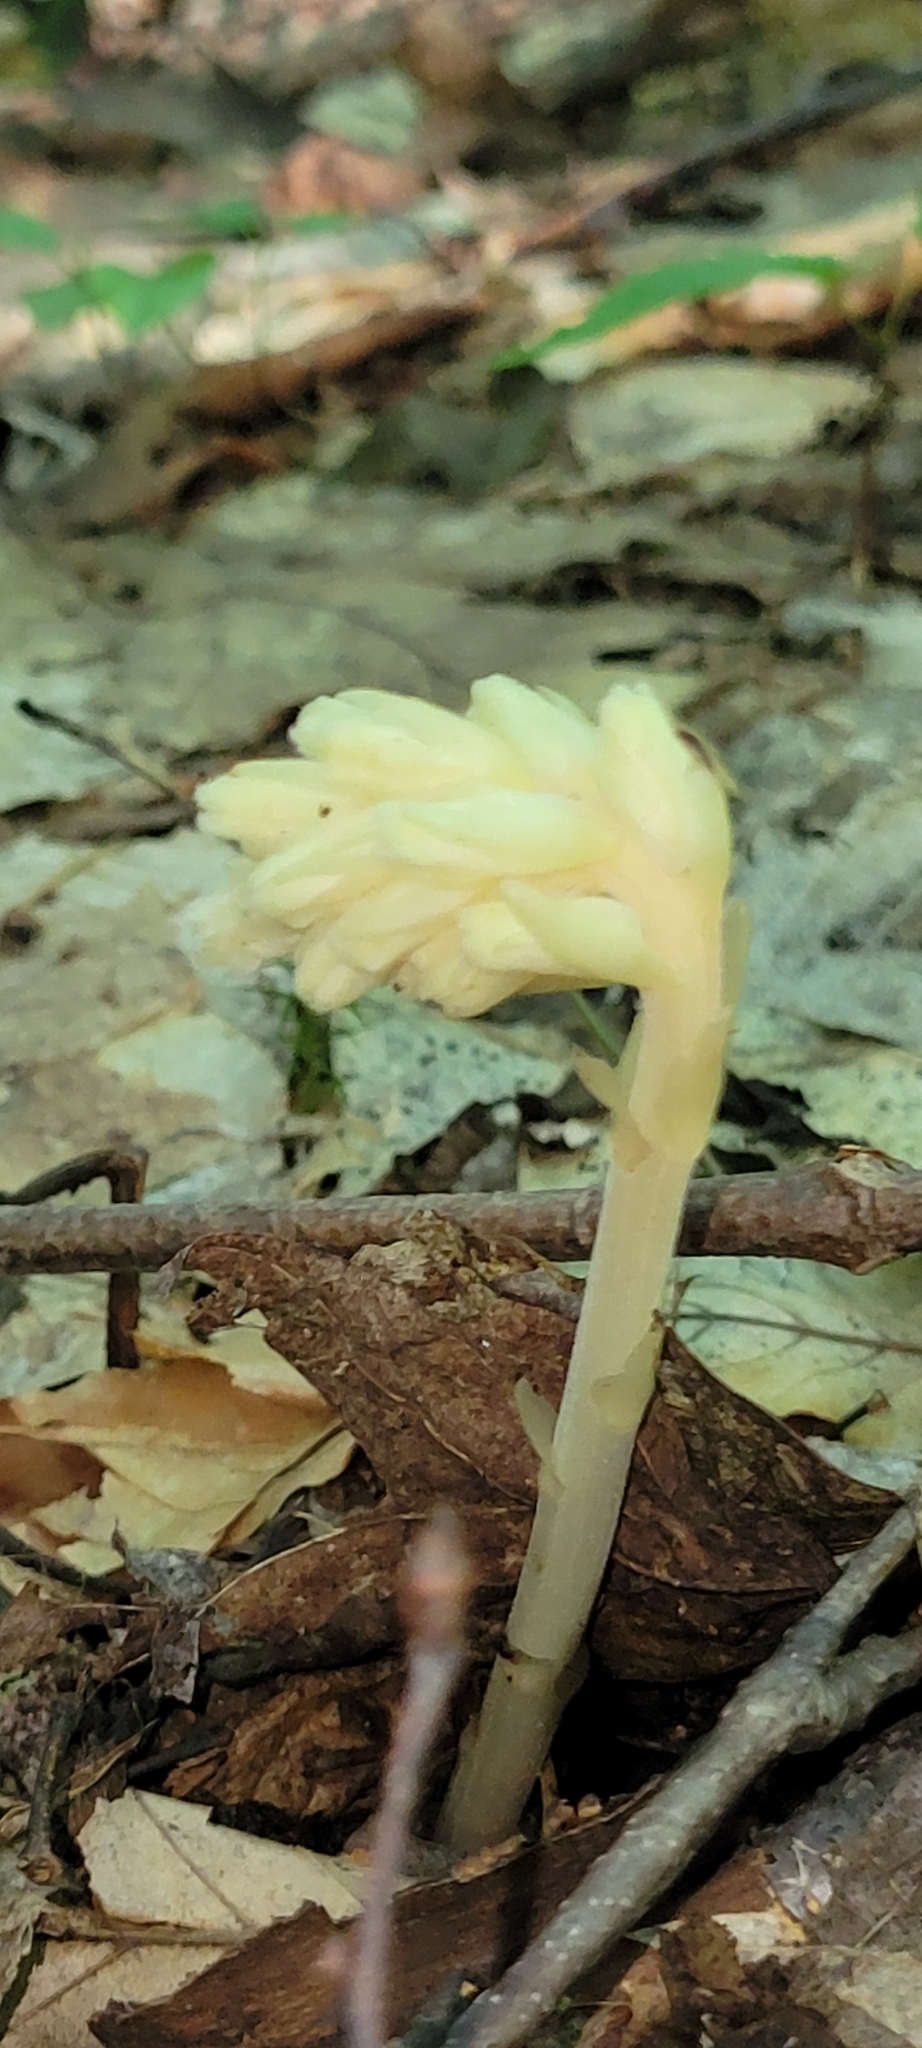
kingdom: Plantae
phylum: Tracheophyta
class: Magnoliopsida
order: Ericales
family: Ericaceae
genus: Hypopitys
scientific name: Hypopitys monotropa
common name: Yellow bird's-nest
